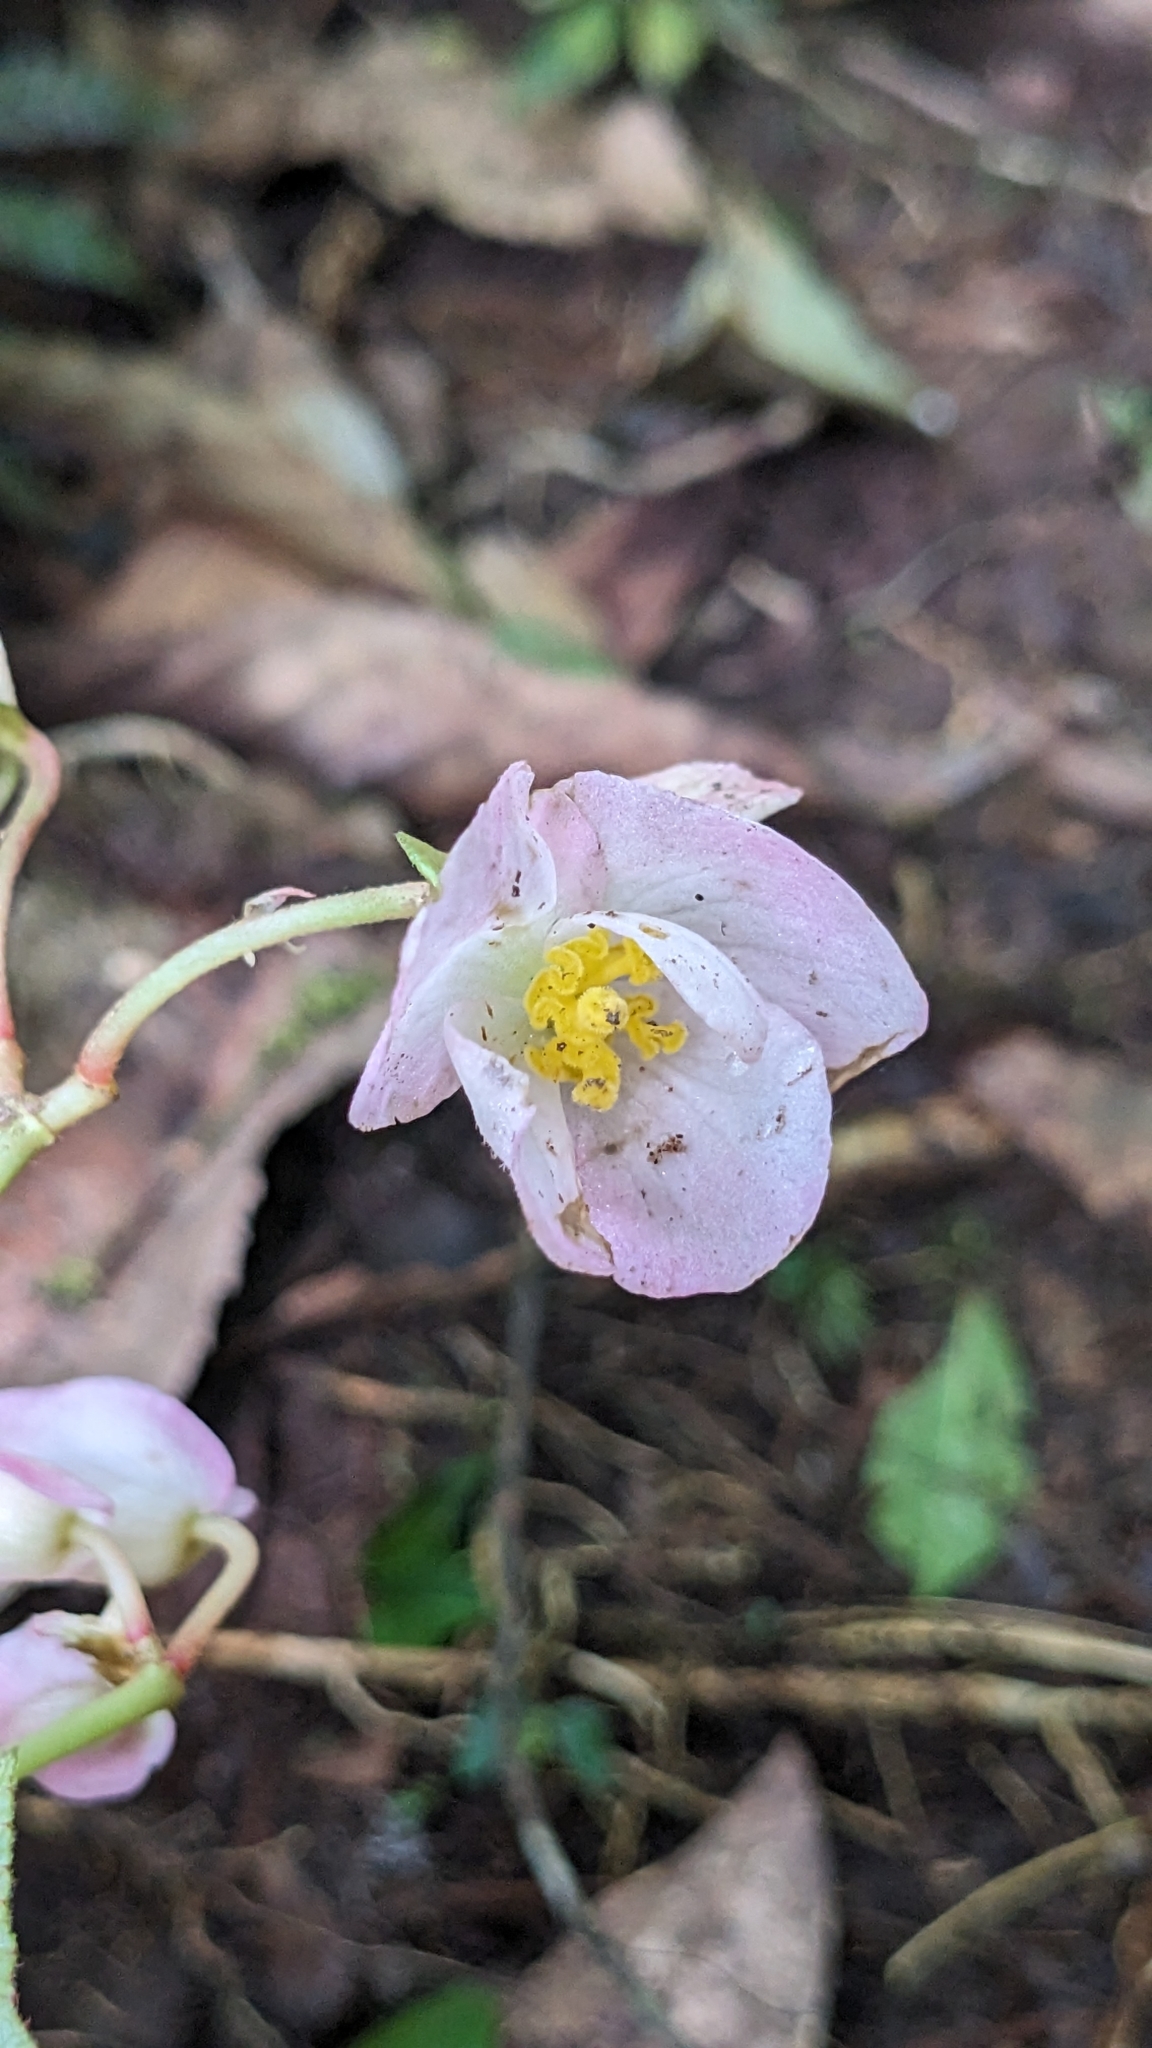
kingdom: Plantae
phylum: Tracheophyta
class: Magnoliopsida
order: Cucurbitales
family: Begoniaceae
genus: Begonia
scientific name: Begonia palmata
